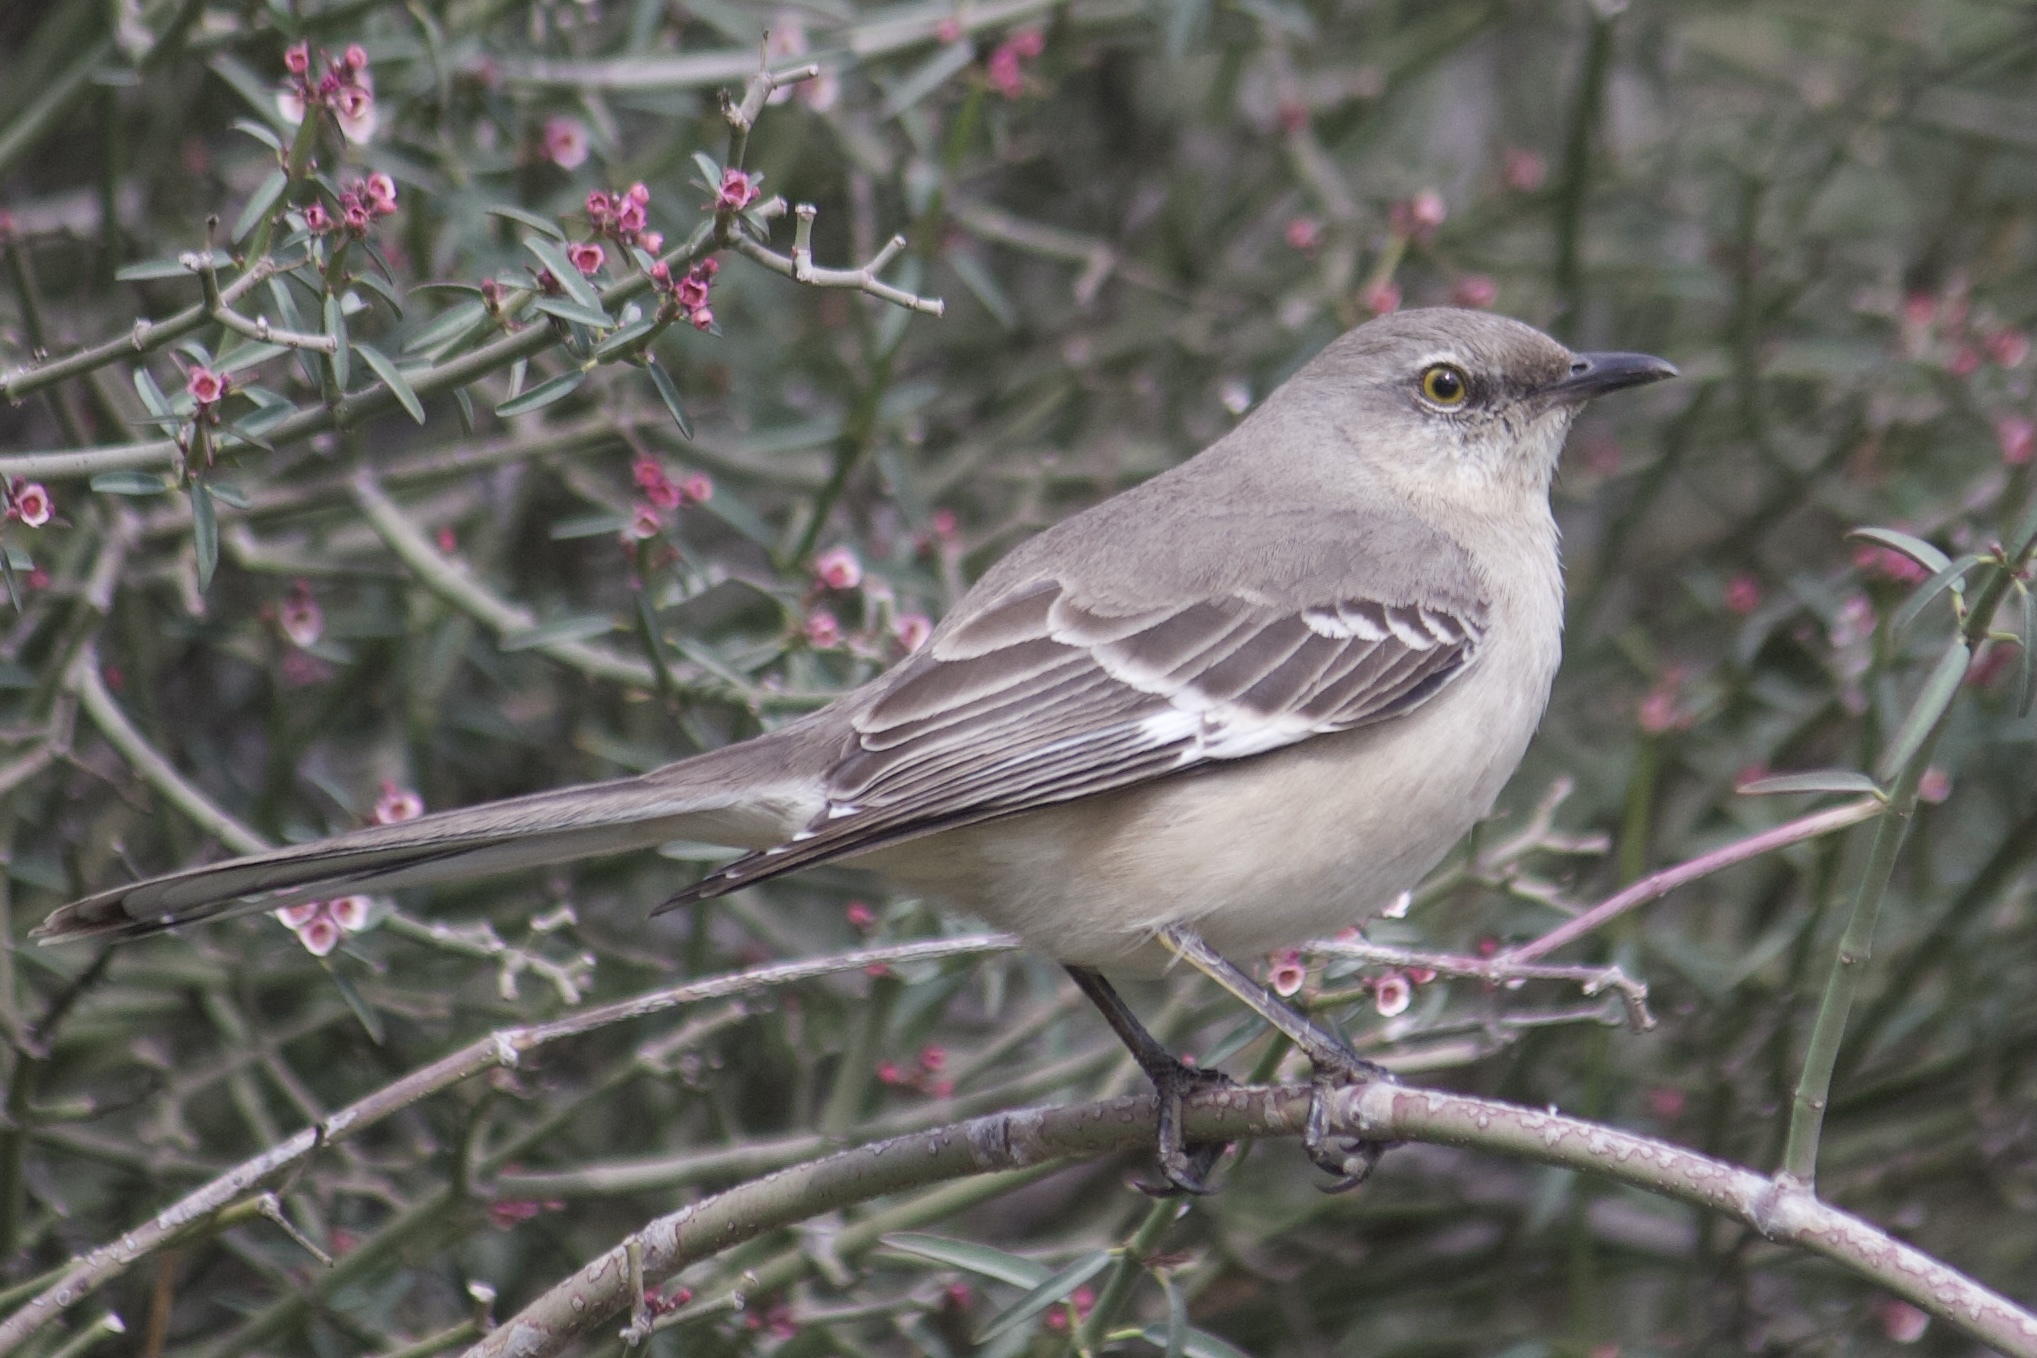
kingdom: Animalia
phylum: Chordata
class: Aves
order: Passeriformes
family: Mimidae
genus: Mimus
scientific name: Mimus polyglottos
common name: Northern mockingbird
